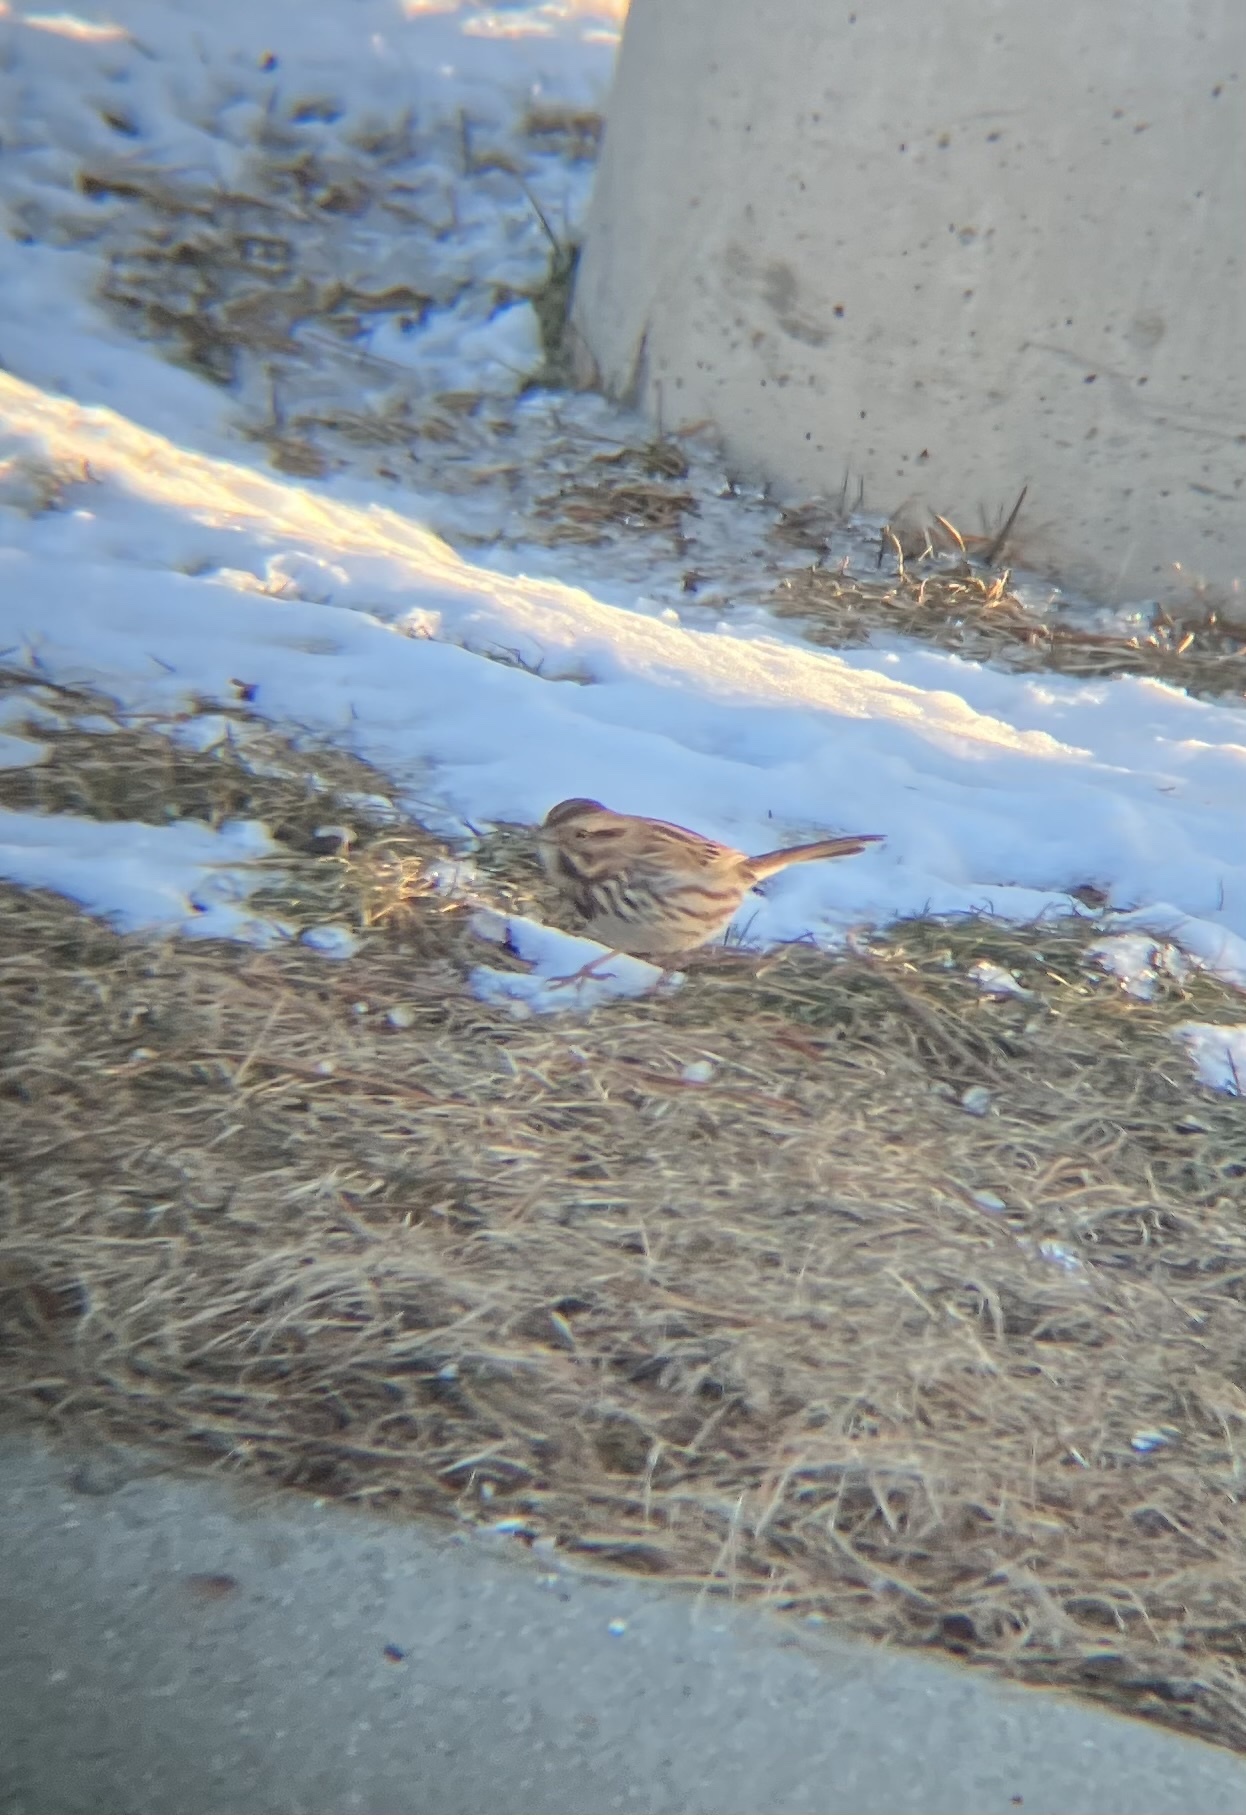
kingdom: Animalia
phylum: Chordata
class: Aves
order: Passeriformes
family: Passerellidae
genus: Melospiza
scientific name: Melospiza melodia
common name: Song sparrow
